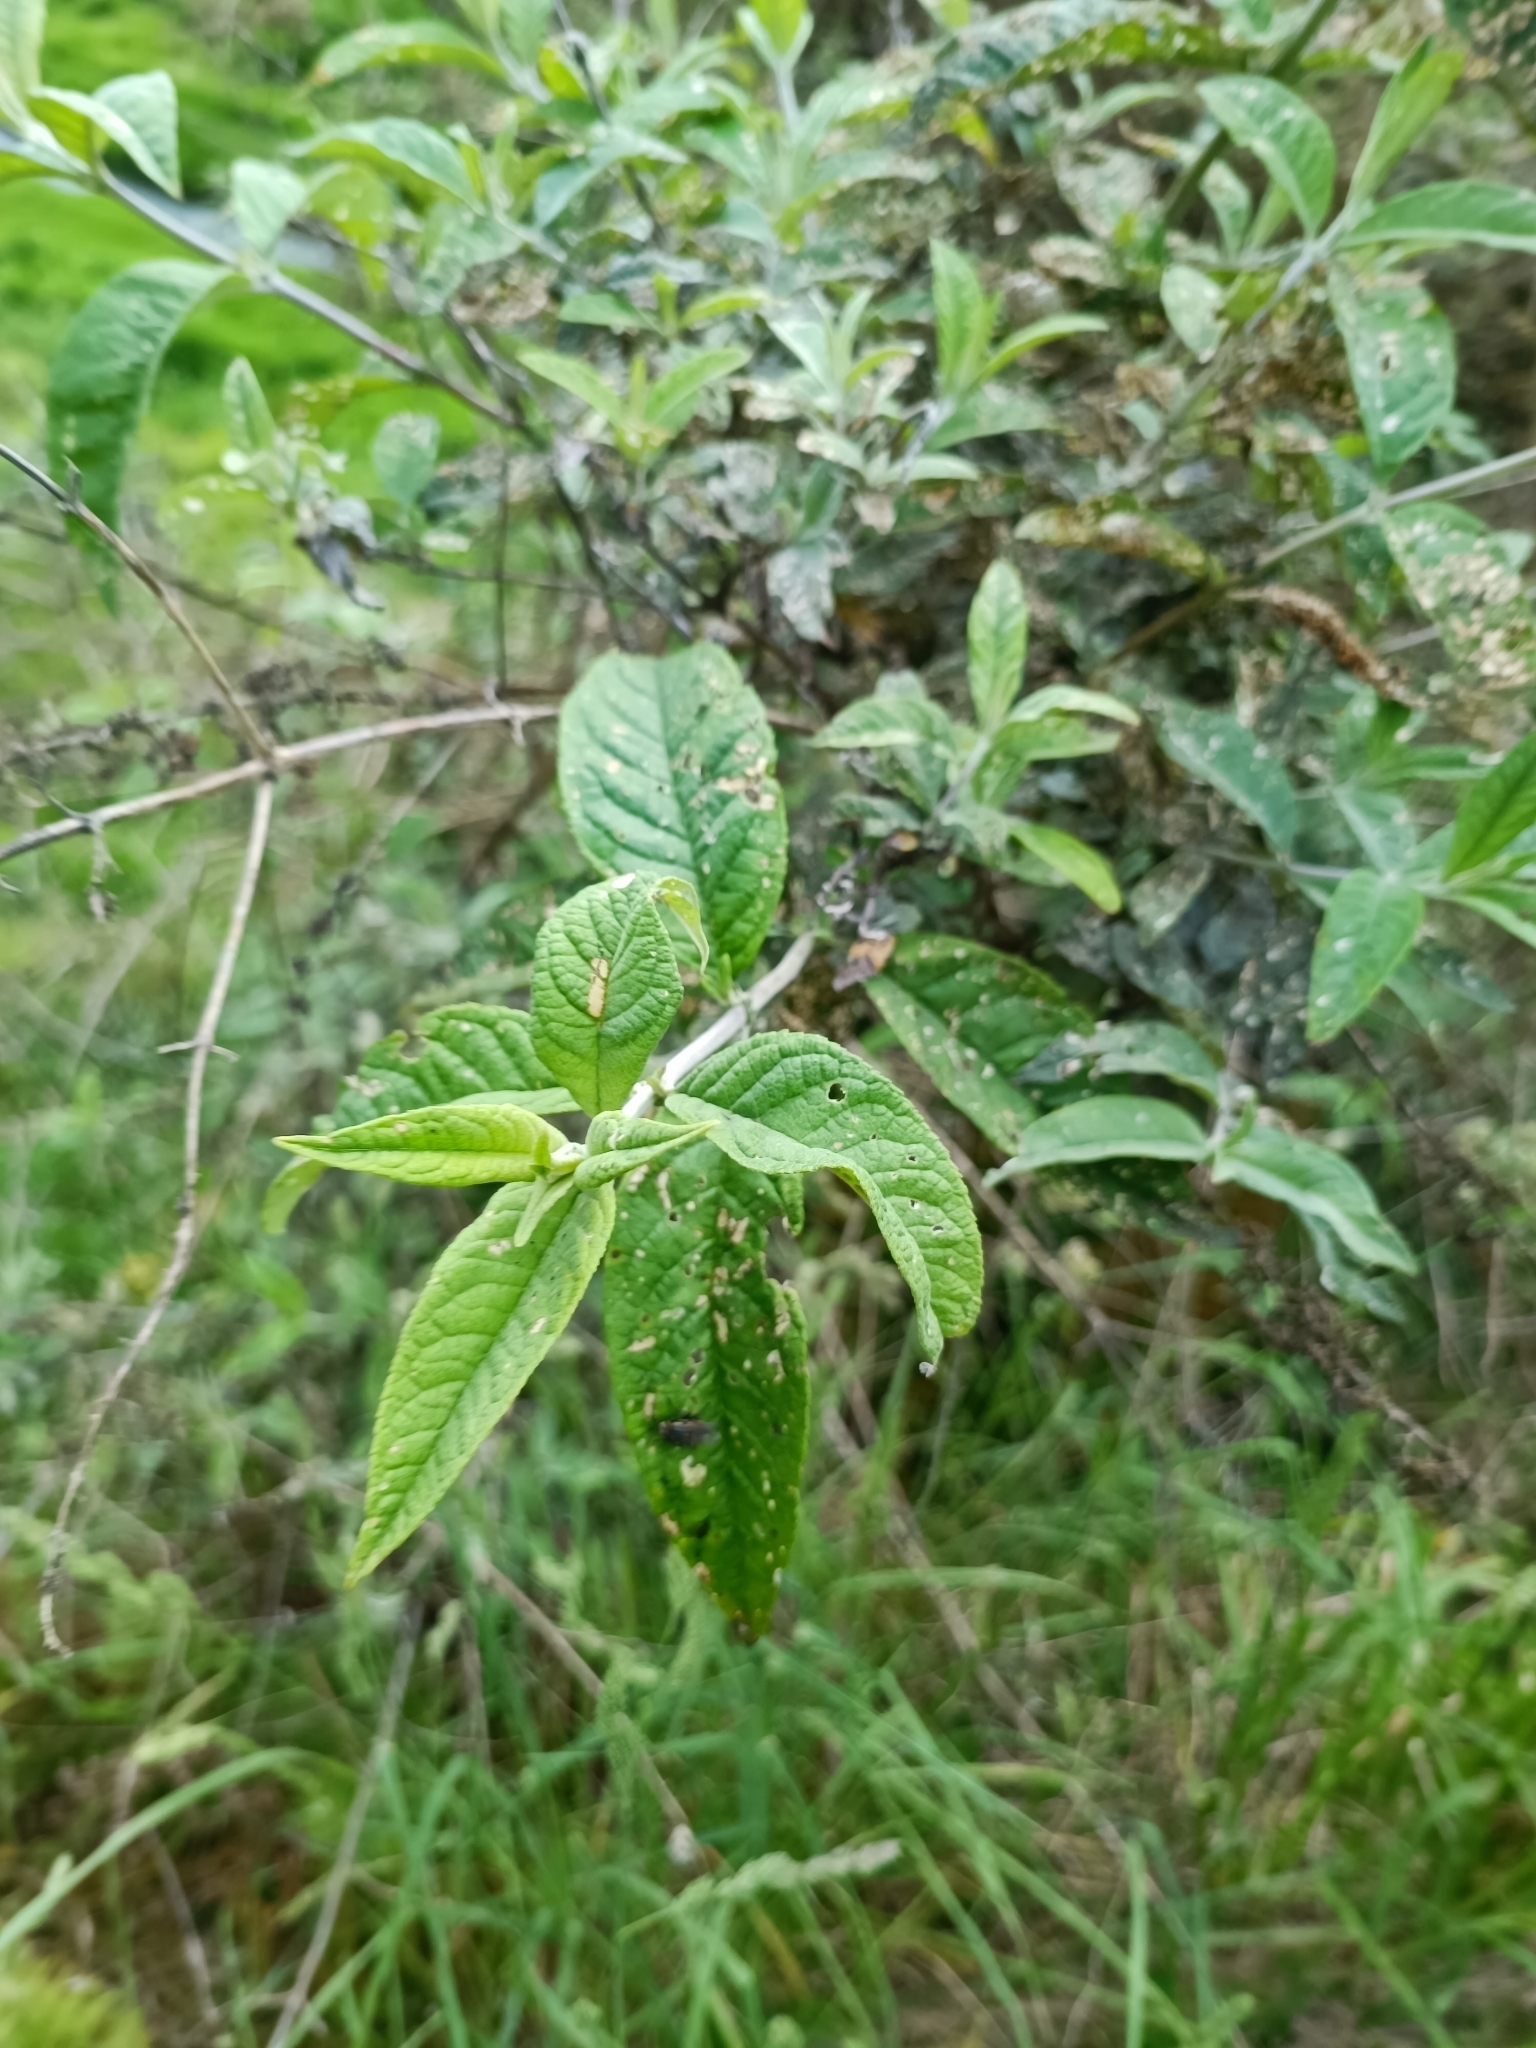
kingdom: Plantae
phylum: Tracheophyta
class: Magnoliopsida
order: Lamiales
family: Scrophulariaceae
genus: Buddleja
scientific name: Buddleja davidii
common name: Butterfly-bush
